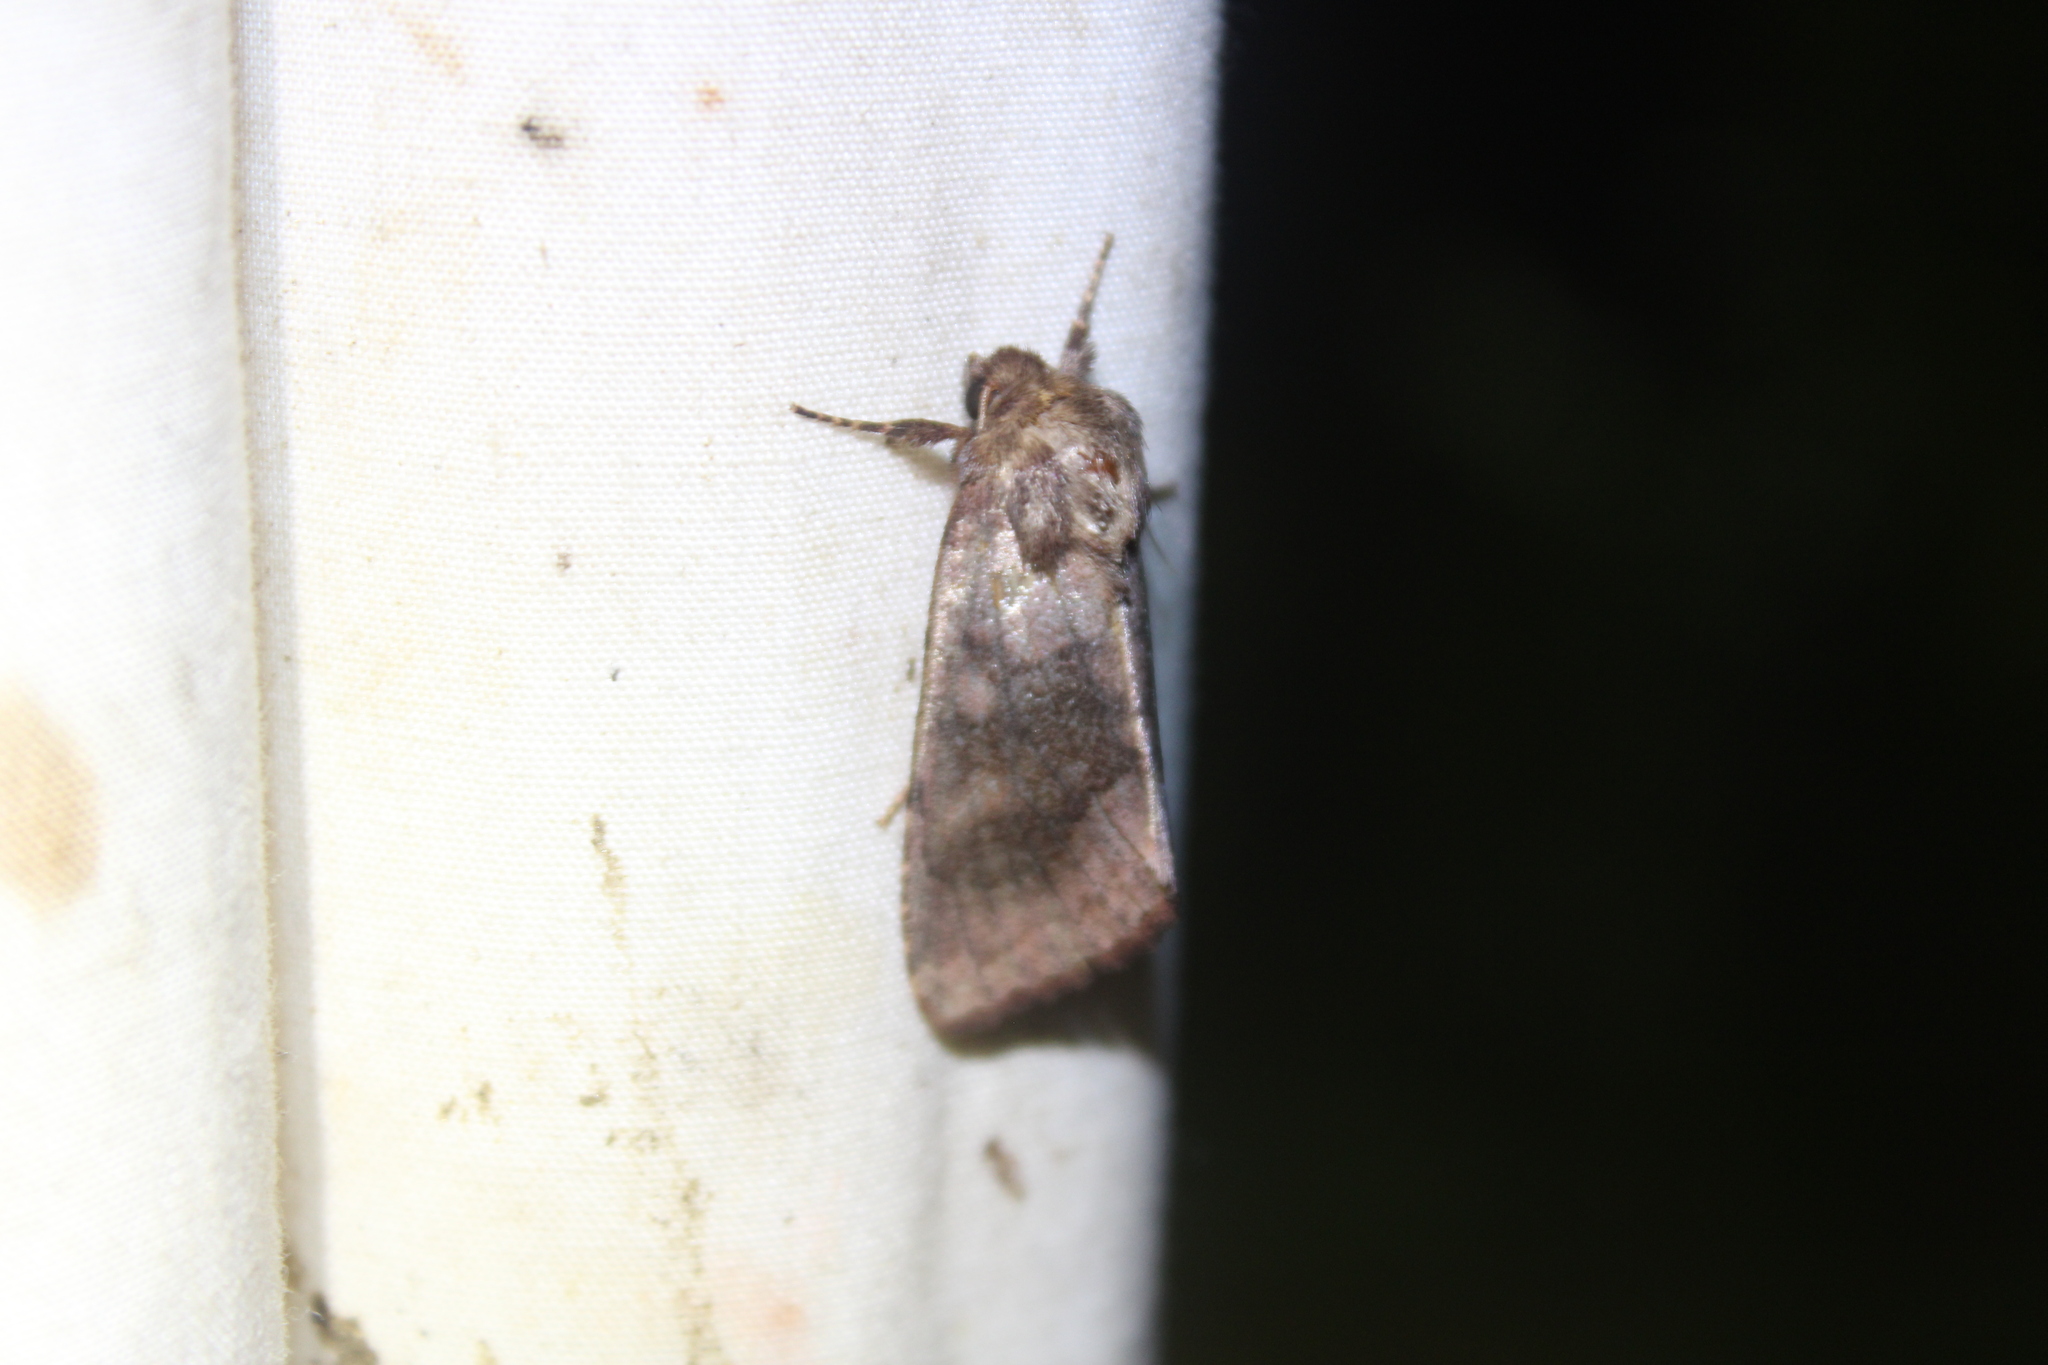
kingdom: Animalia
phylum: Arthropoda
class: Insecta
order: Lepidoptera
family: Noctuidae
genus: Nephelodes
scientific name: Nephelodes minians
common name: Bronzed cutworm
